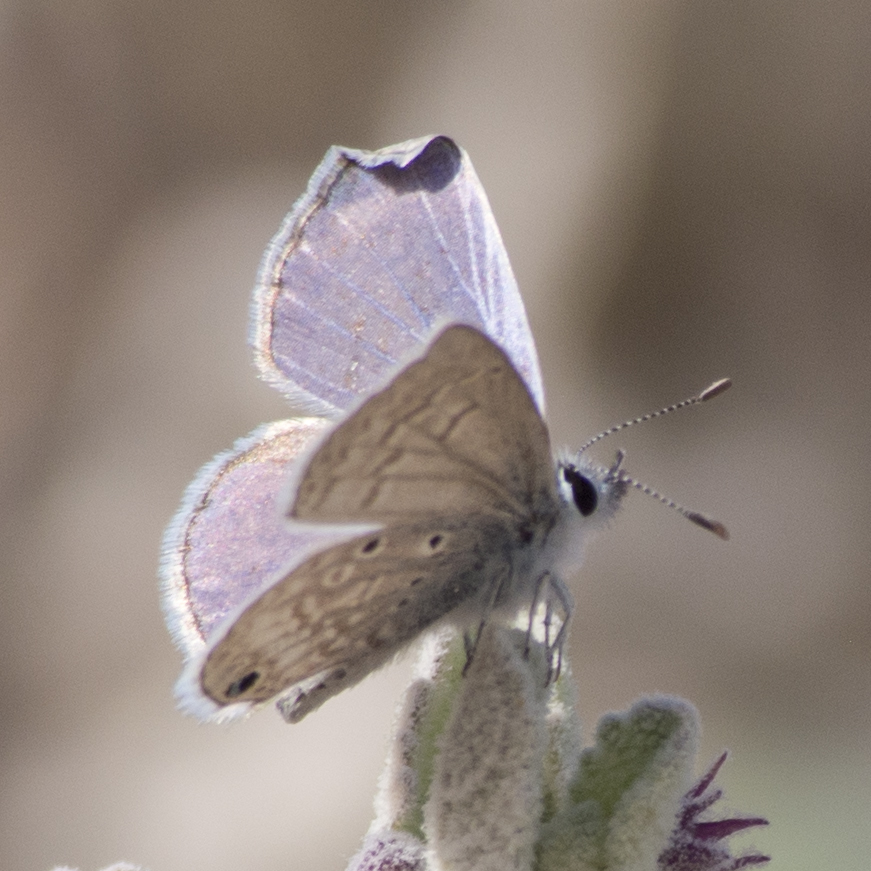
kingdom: Animalia
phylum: Arthropoda
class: Insecta
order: Lepidoptera
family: Lycaenidae
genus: Hemiargus
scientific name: Hemiargus ceraunus
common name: Ceraunus blue
